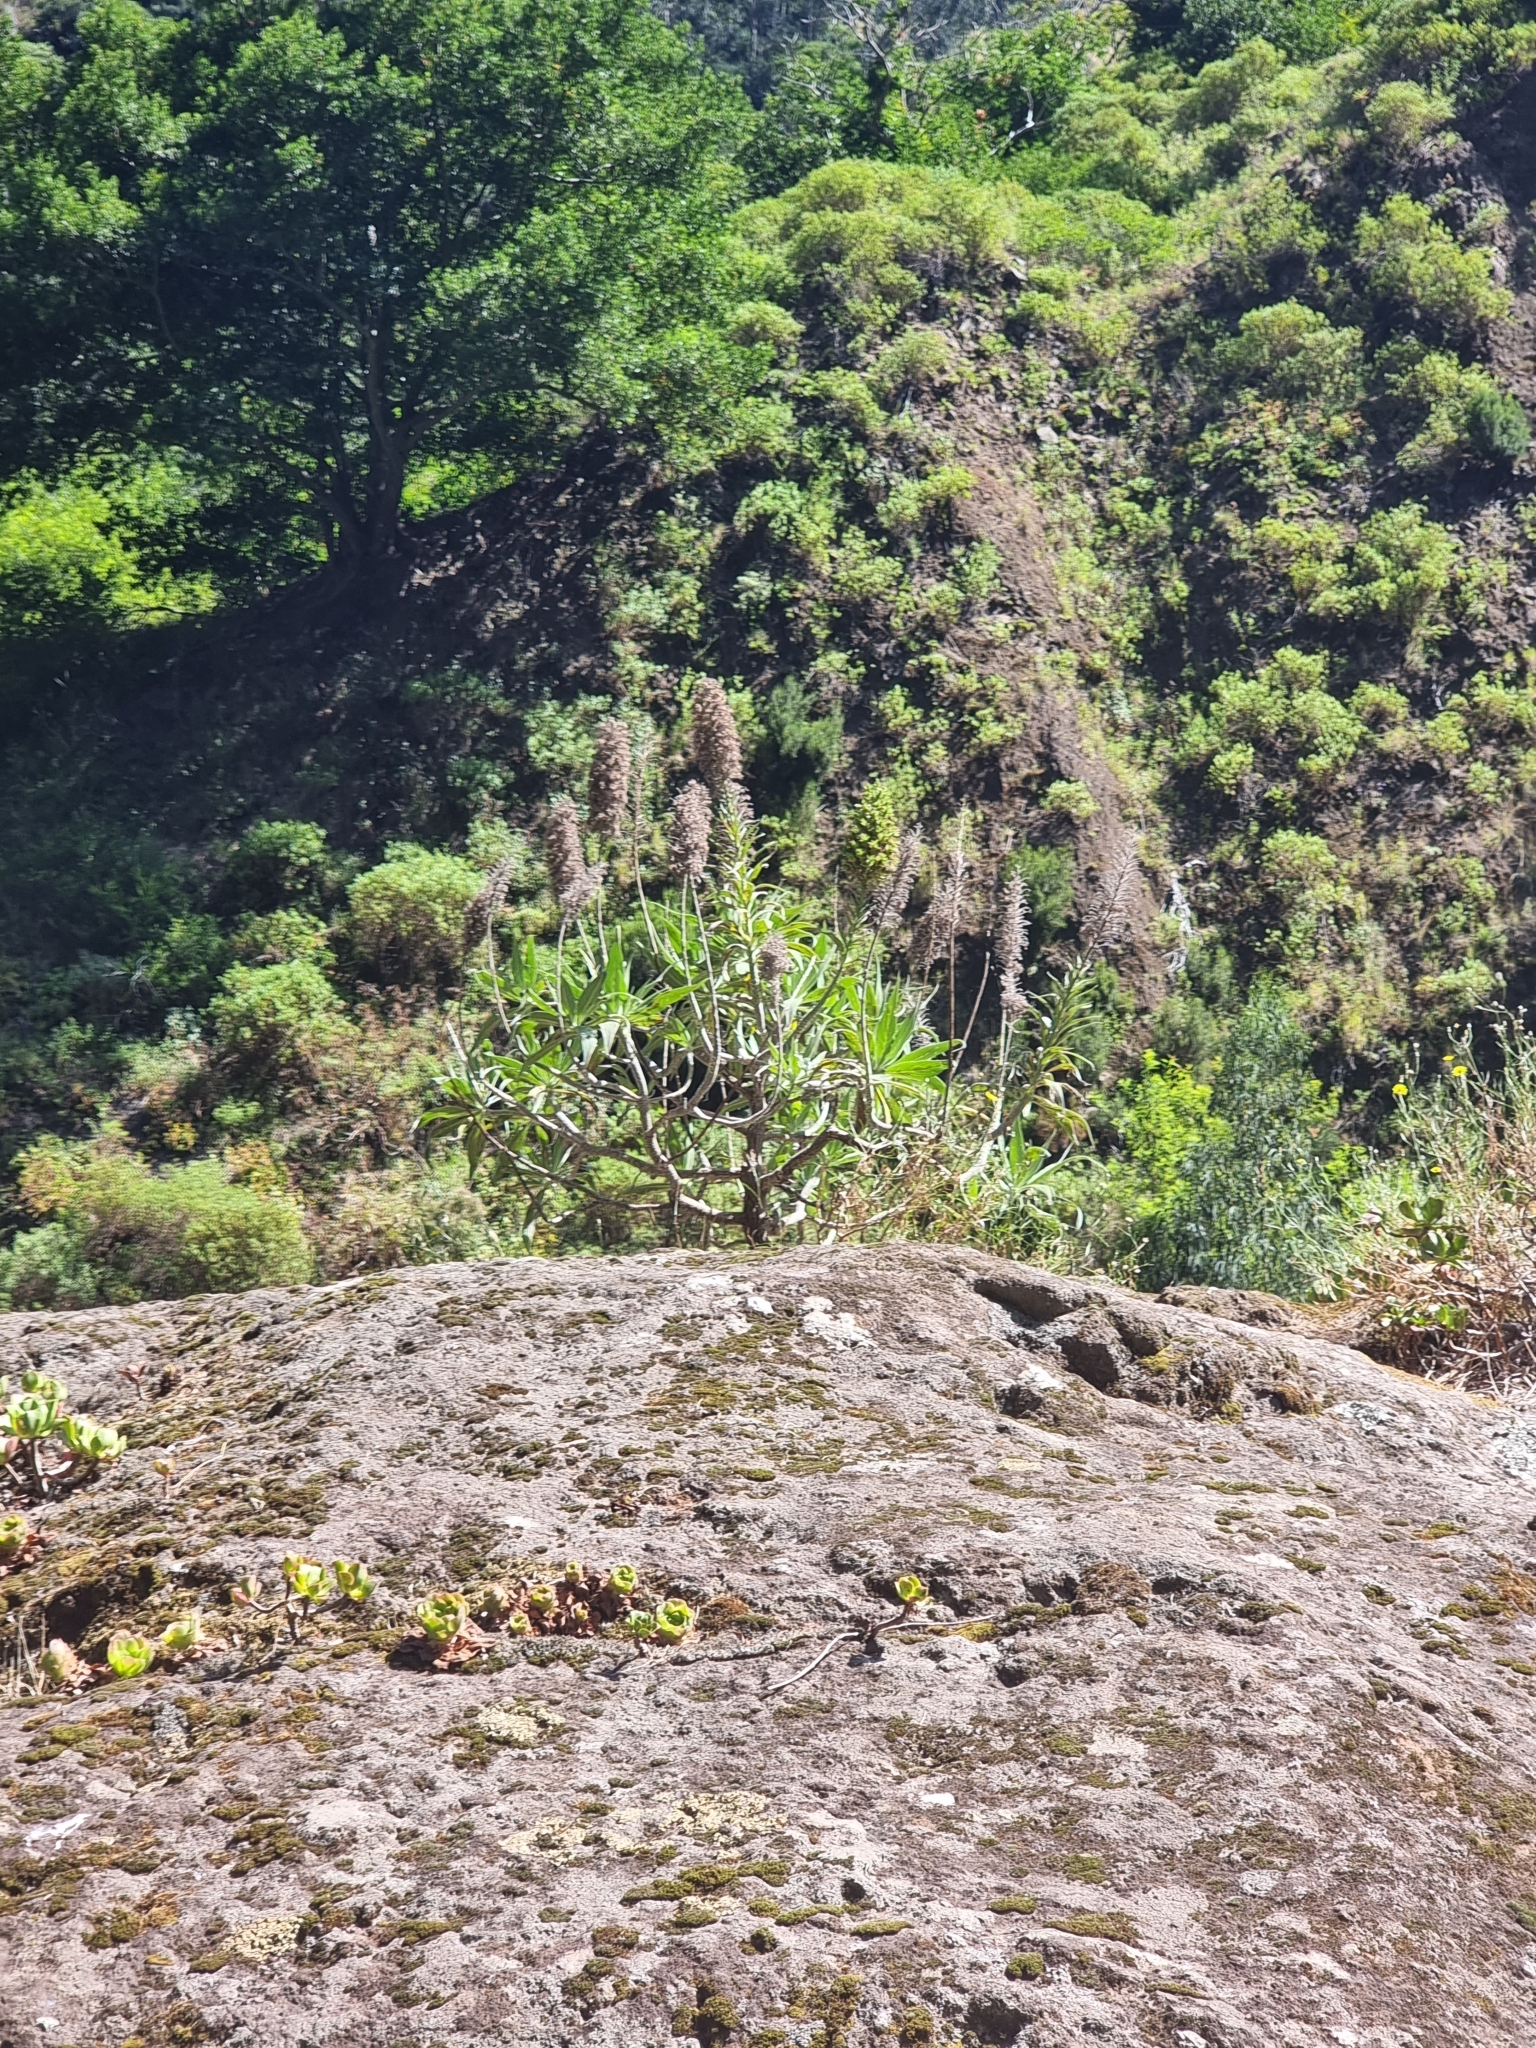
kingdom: Plantae
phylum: Tracheophyta
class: Magnoliopsida
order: Boraginales
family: Boraginaceae
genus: Echium
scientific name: Echium candicans
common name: Pride of madeira
